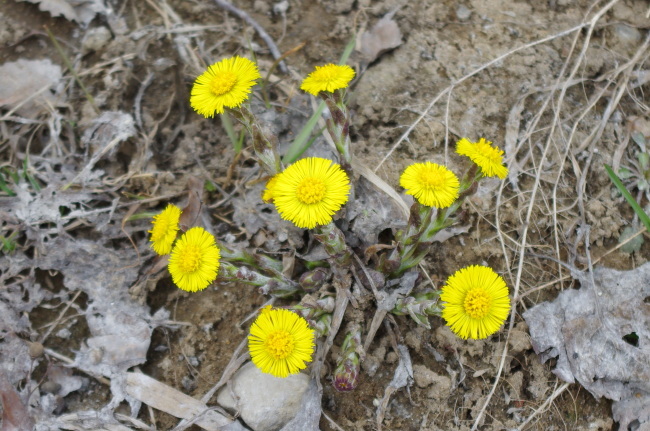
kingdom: Plantae
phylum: Tracheophyta
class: Magnoliopsida
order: Asterales
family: Asteraceae
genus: Tussilago
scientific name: Tussilago farfara
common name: Coltsfoot
